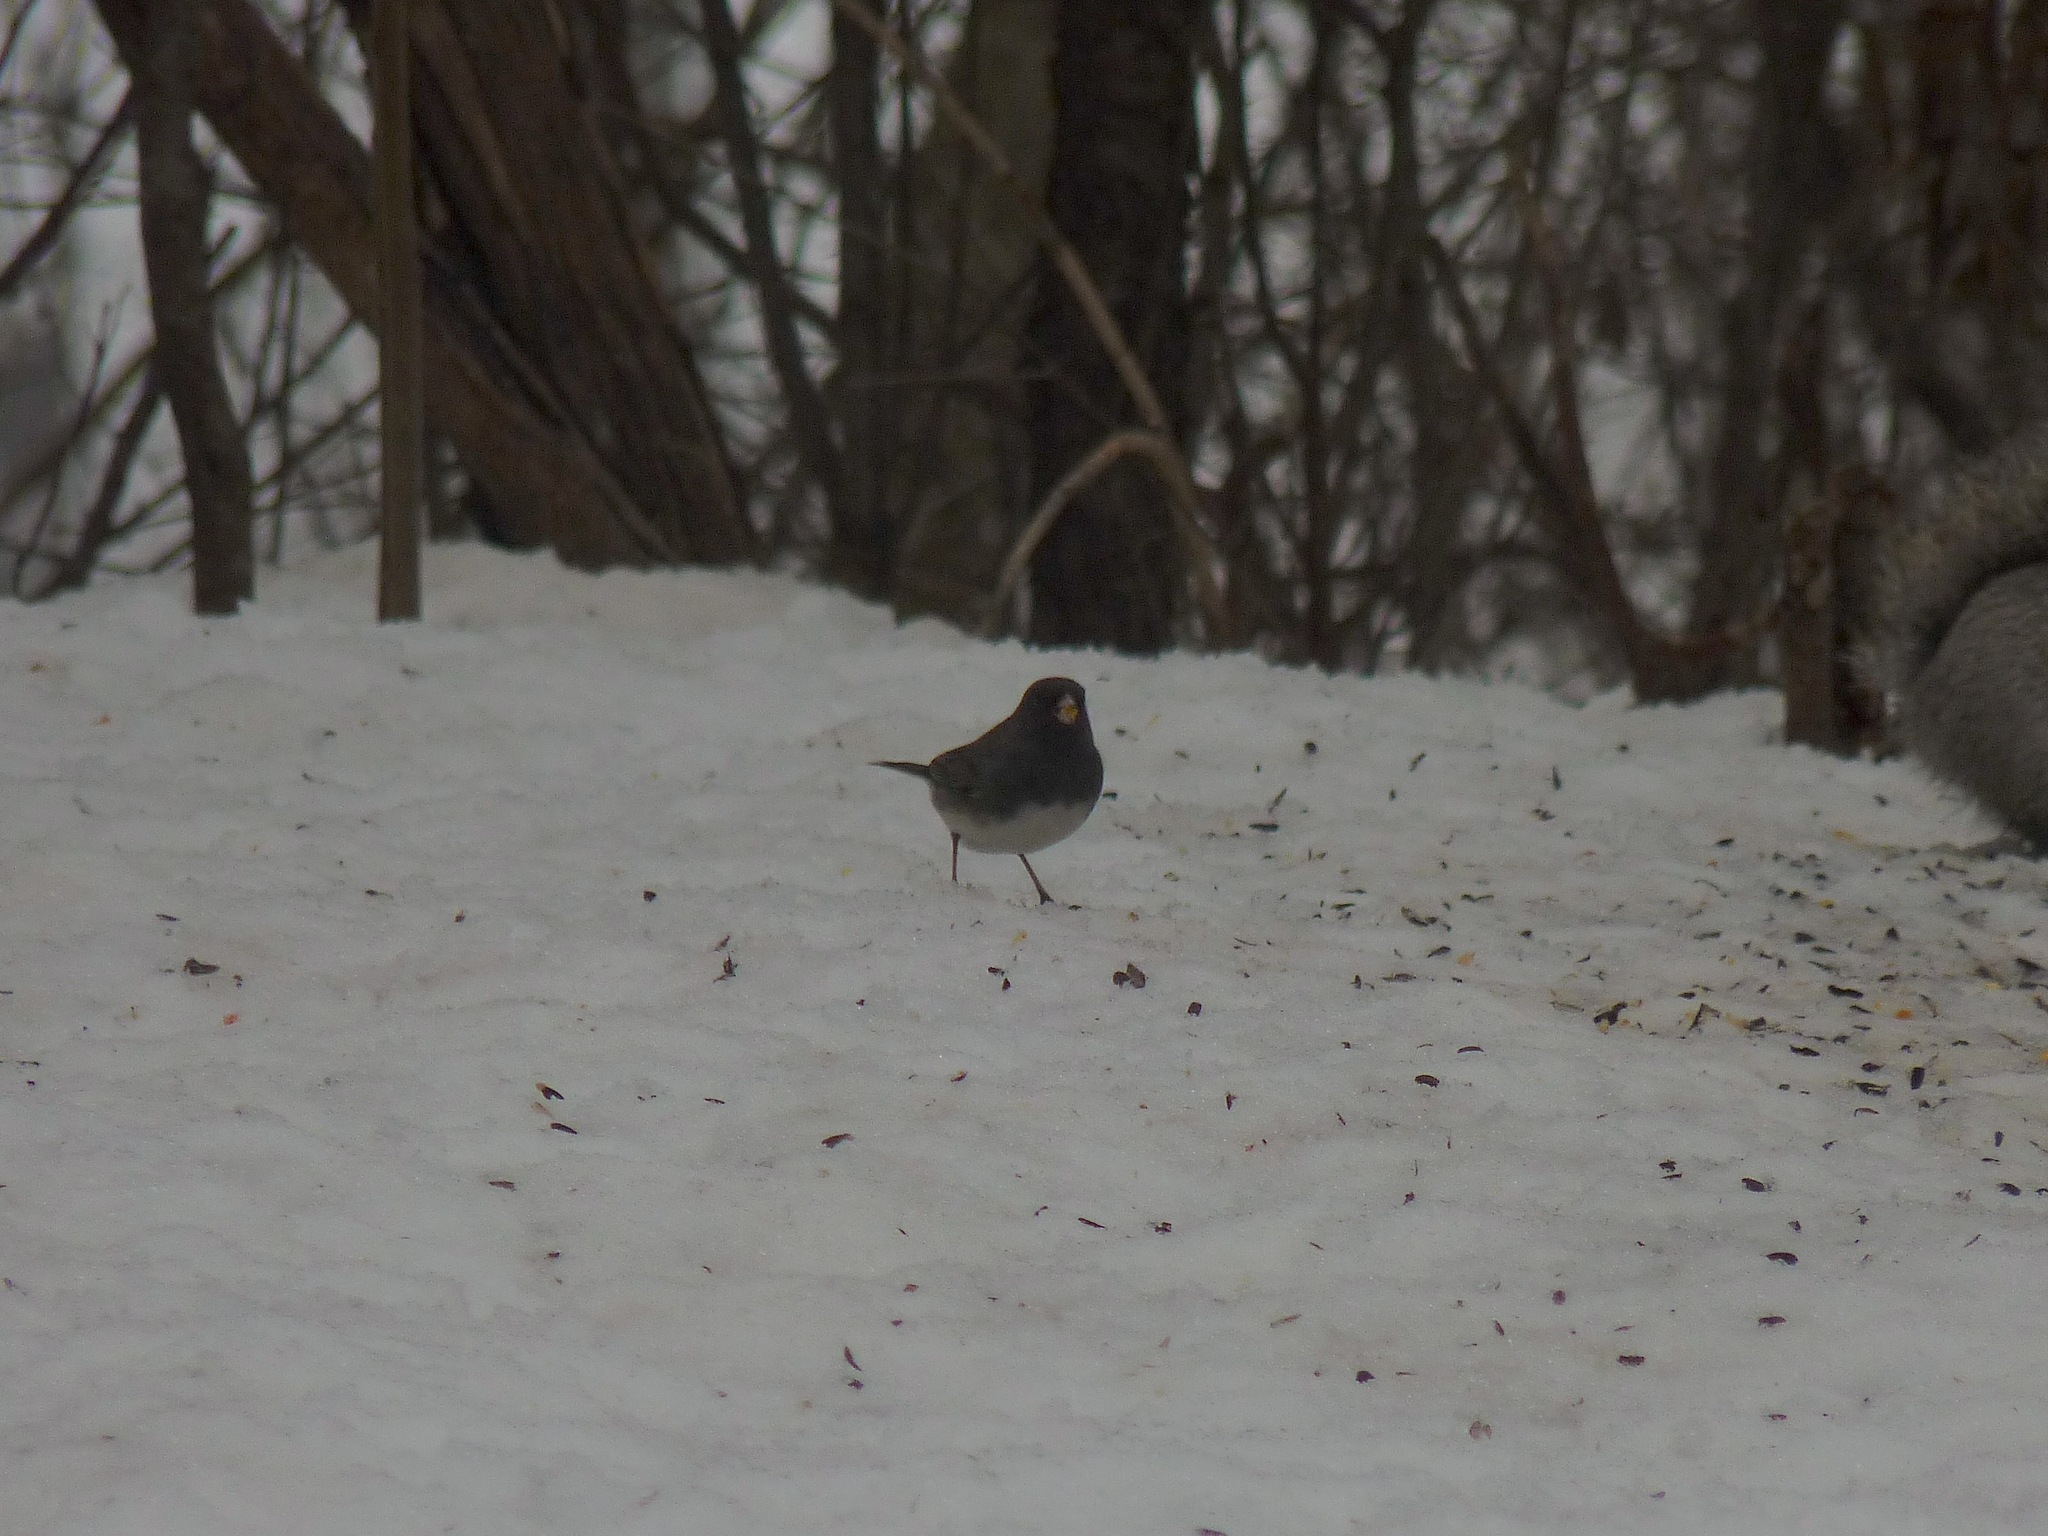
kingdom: Animalia
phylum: Chordata
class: Aves
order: Passeriformes
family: Passerellidae
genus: Junco
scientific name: Junco hyemalis
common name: Dark-eyed junco
